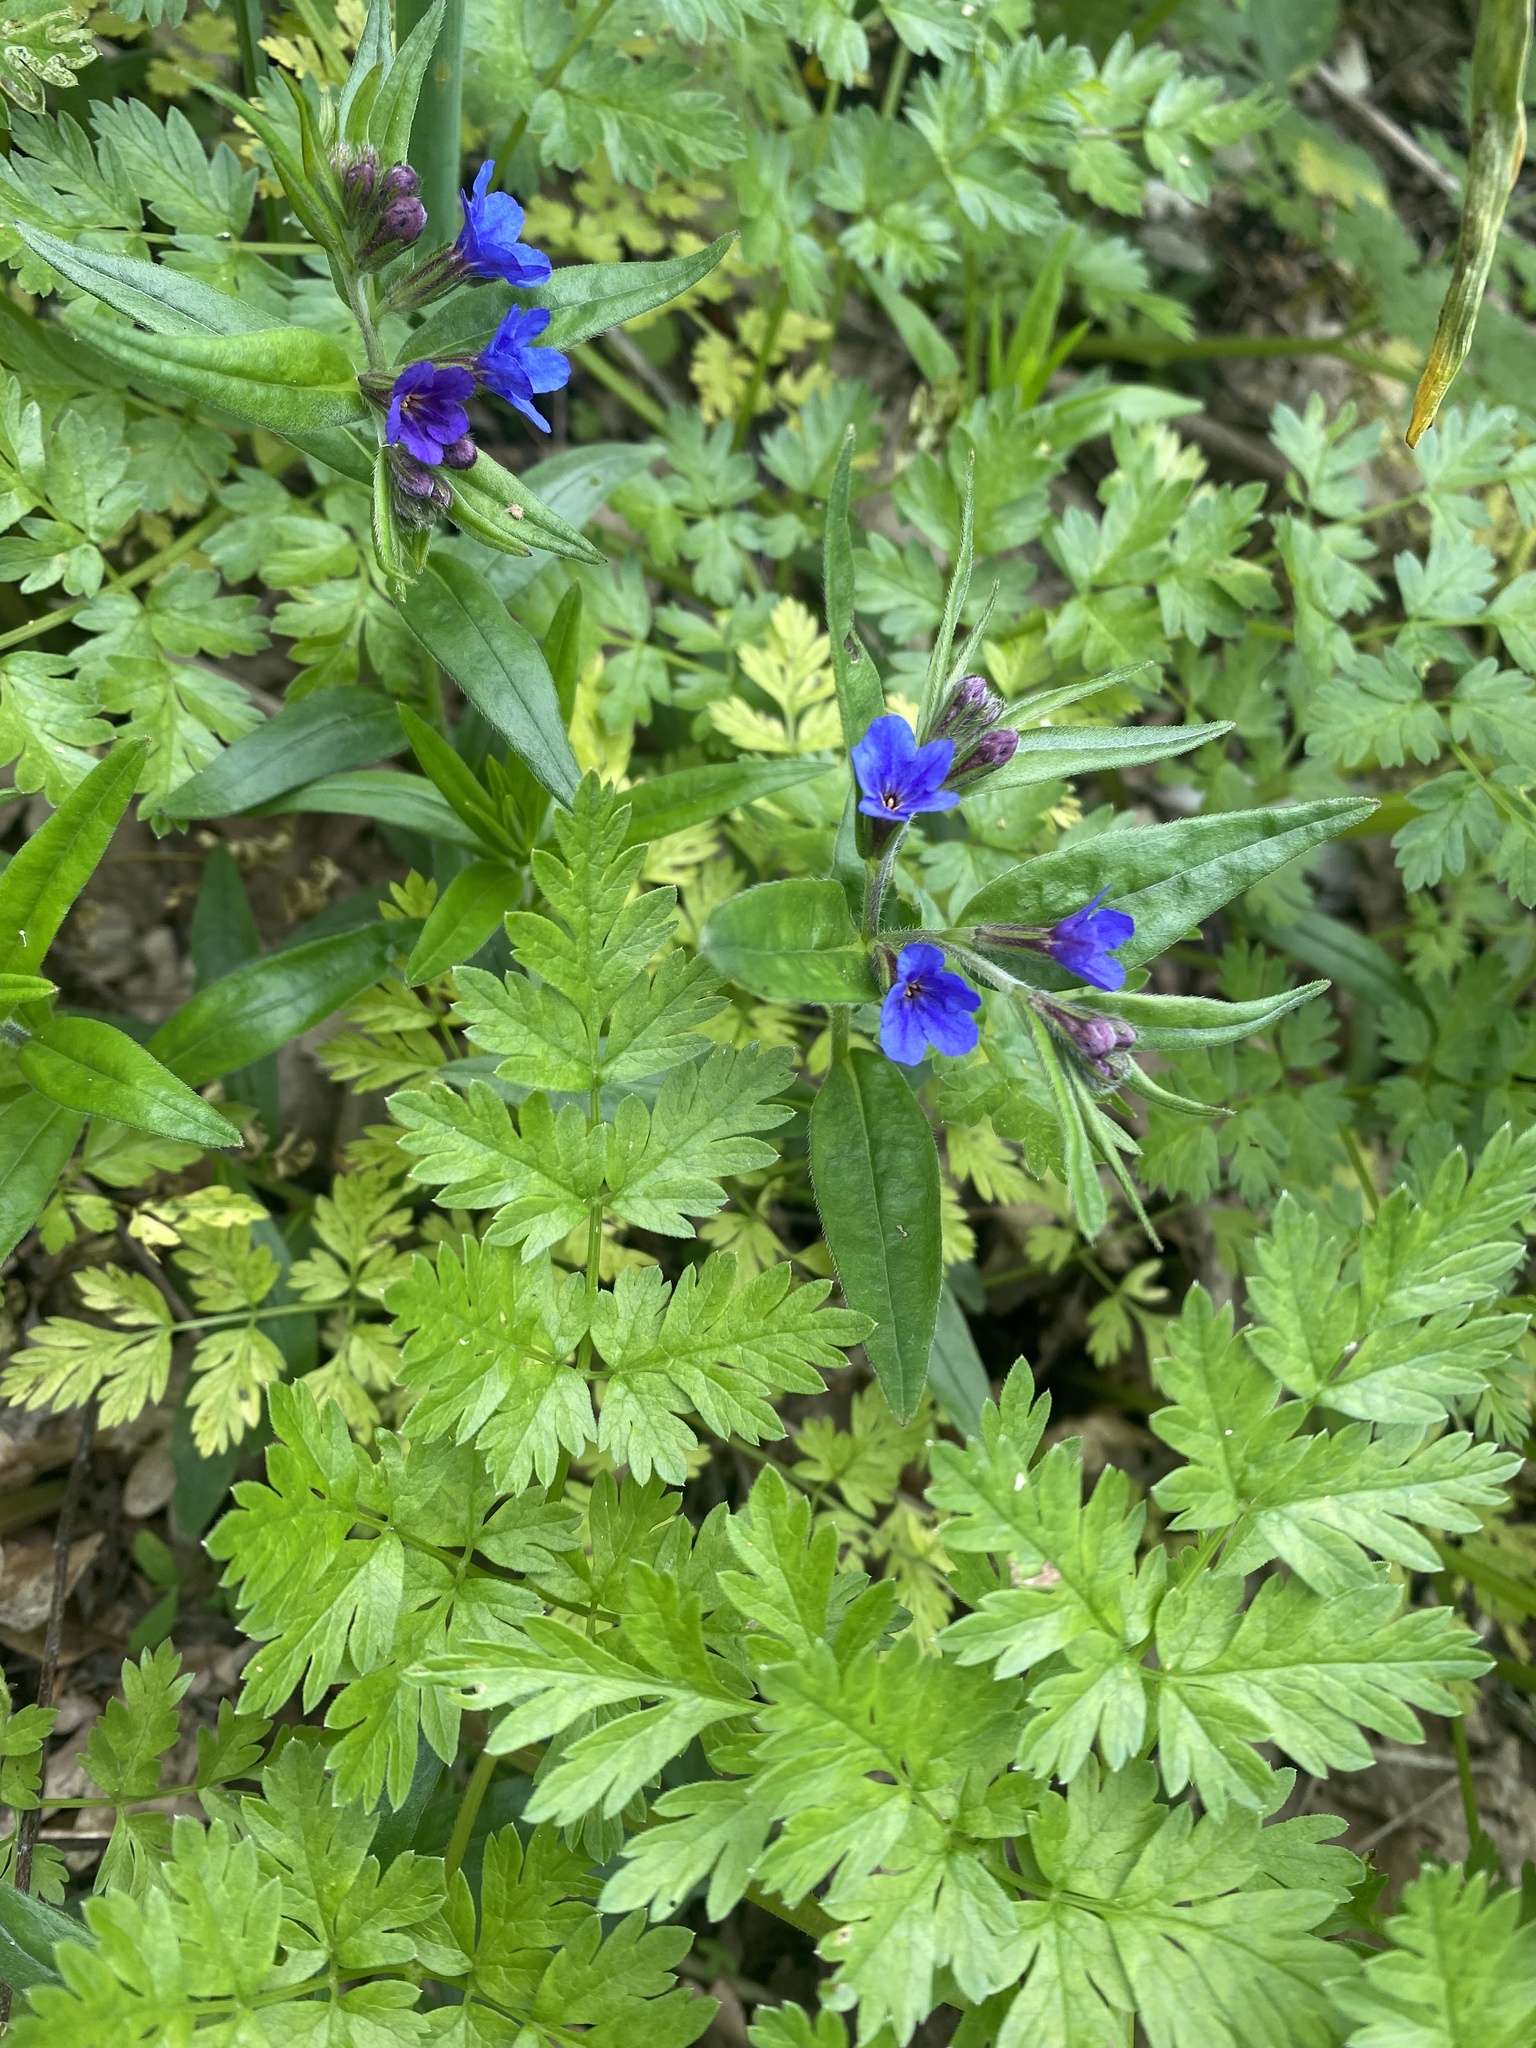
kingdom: Plantae
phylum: Tracheophyta
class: Magnoliopsida
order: Boraginales
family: Boraginaceae
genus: Aegonychon
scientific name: Aegonychon purpurocaeruleum
